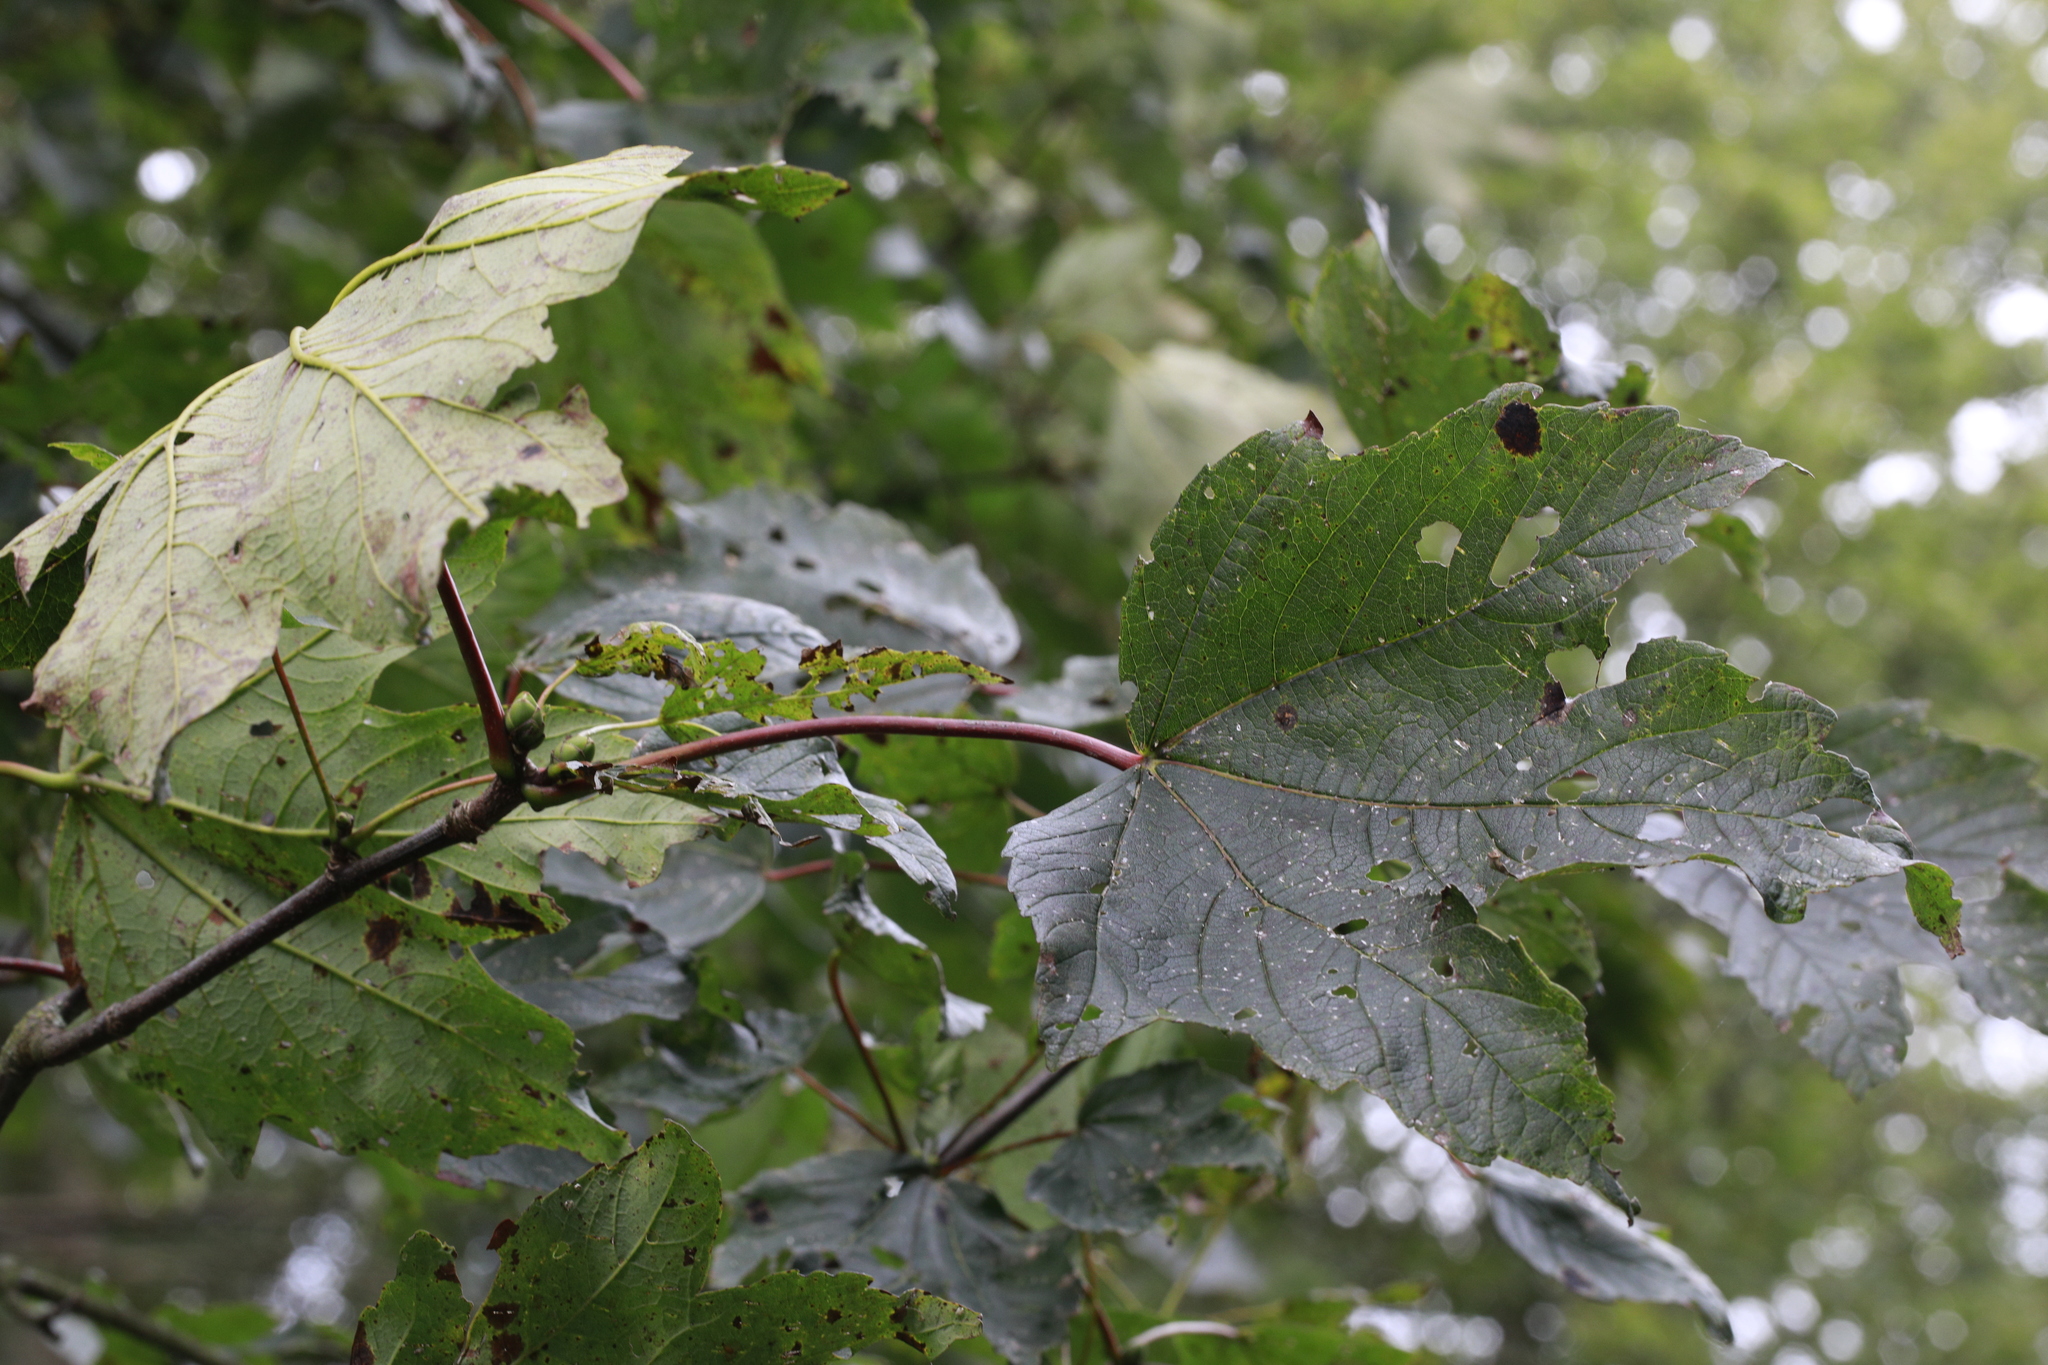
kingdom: Fungi
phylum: Ascomycota
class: Leotiomycetes
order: Rhytismatales
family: Rhytismataceae
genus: Rhytisma
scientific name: Rhytisma acerinum
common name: European tar spot
